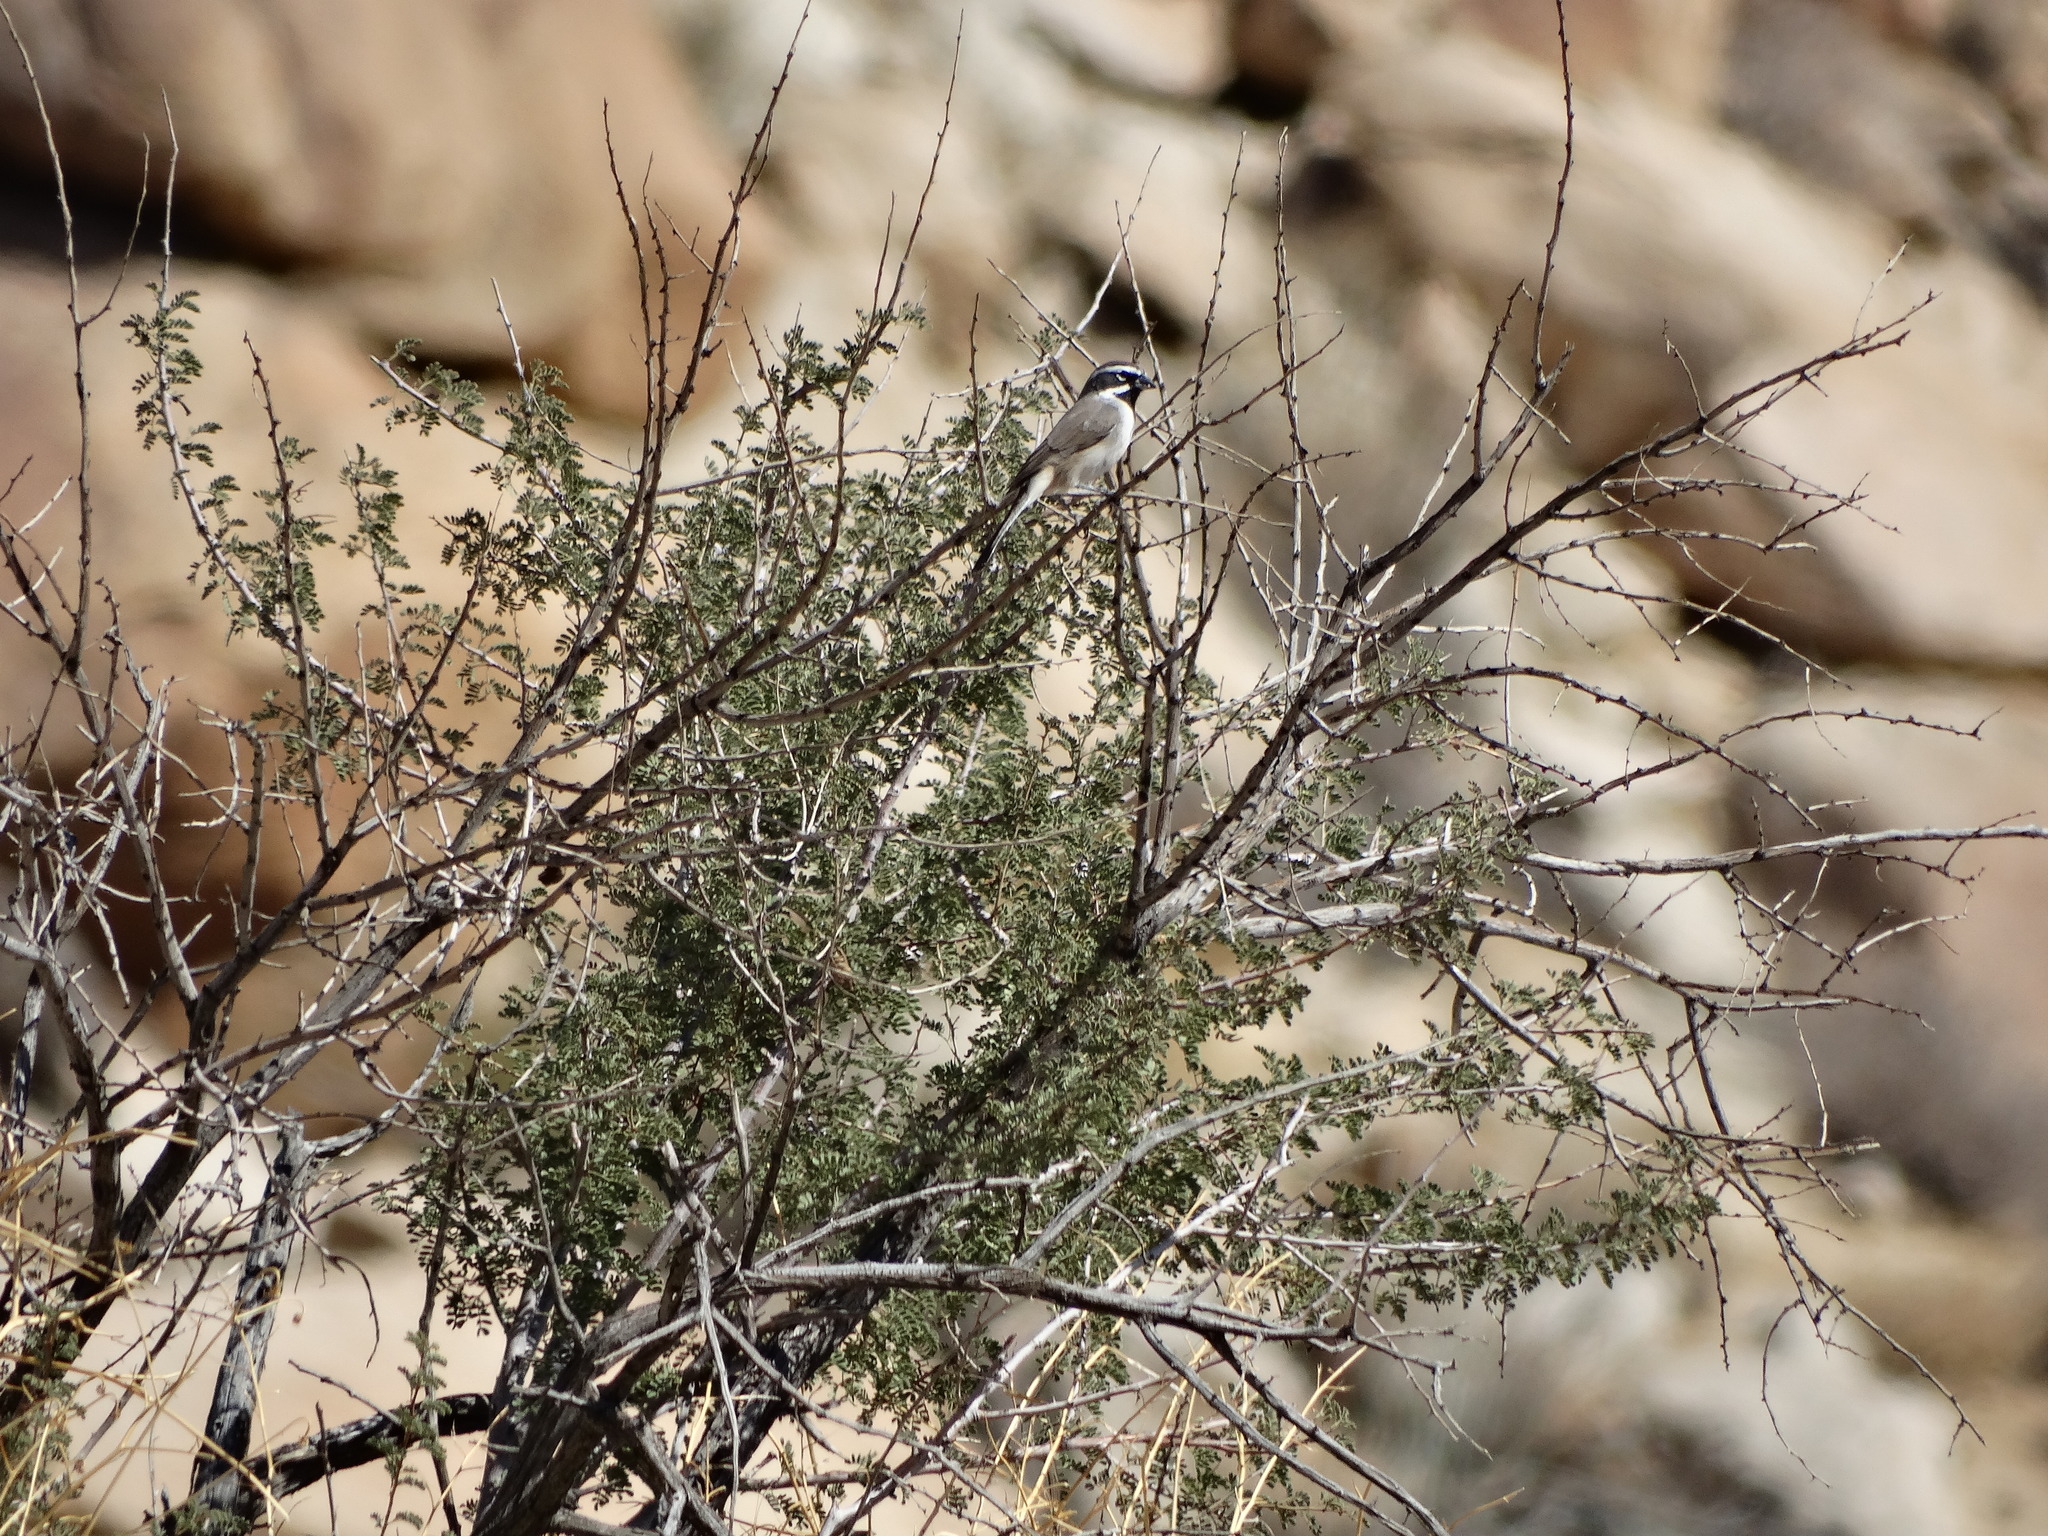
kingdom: Animalia
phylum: Chordata
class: Aves
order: Passeriformes
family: Passerellidae
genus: Amphispiza
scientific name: Amphispiza bilineata
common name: Black-throated sparrow
